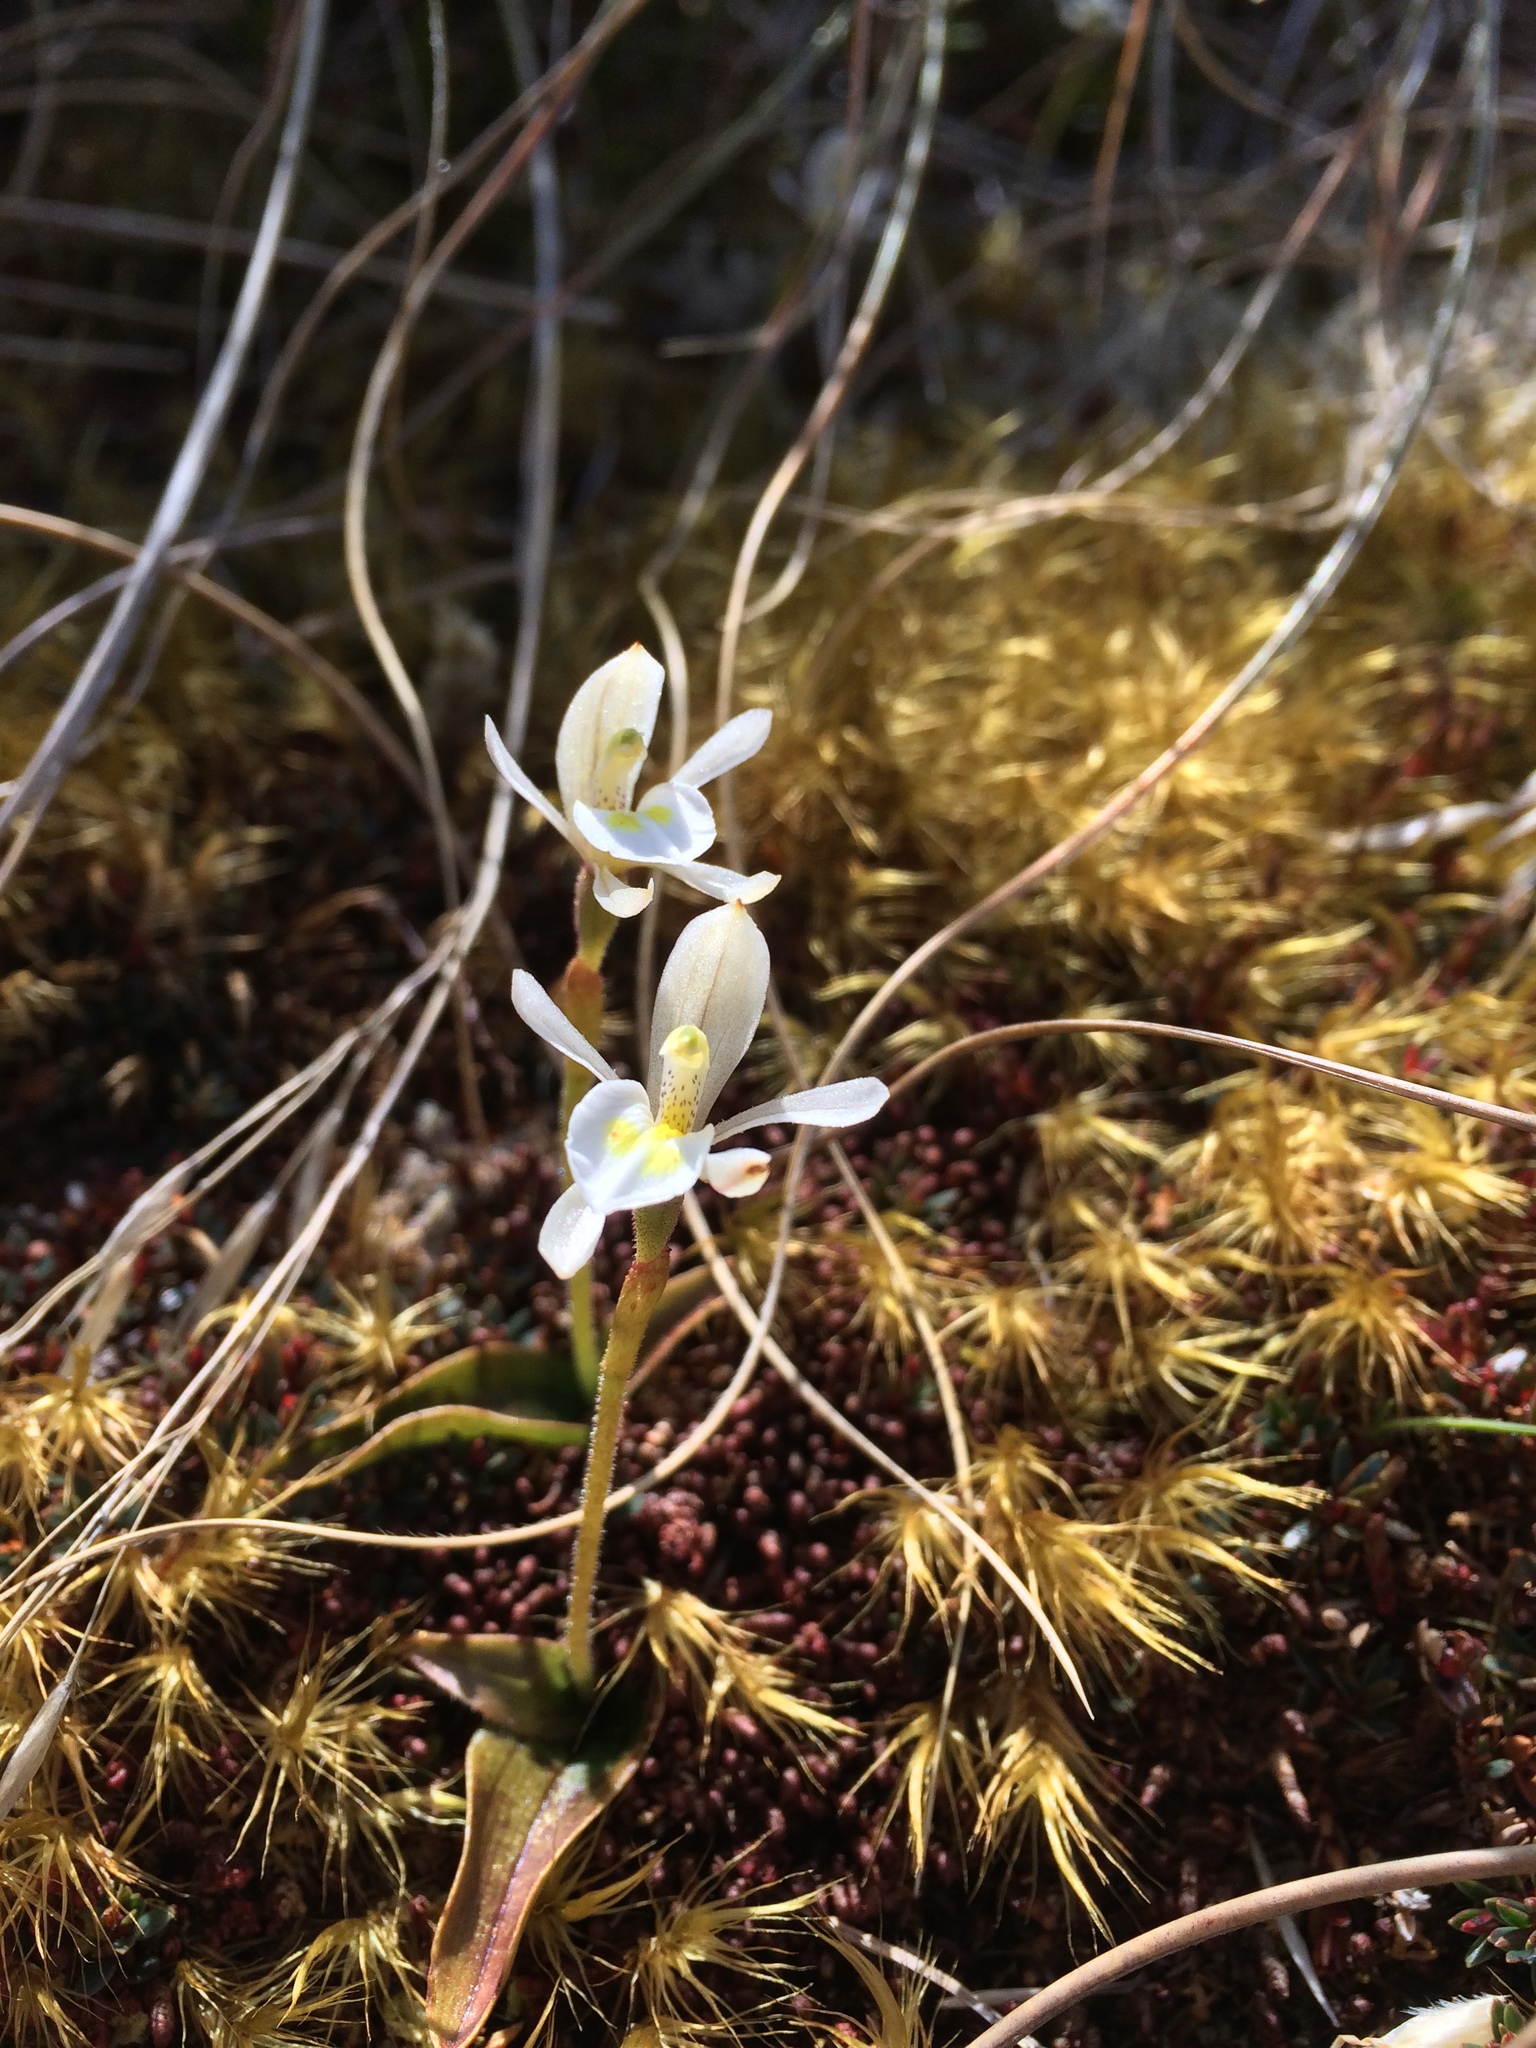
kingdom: Plantae
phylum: Tracheophyta
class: Liliopsida
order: Asparagales
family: Orchidaceae
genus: Aporostylis
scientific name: Aporostylis bifolia
